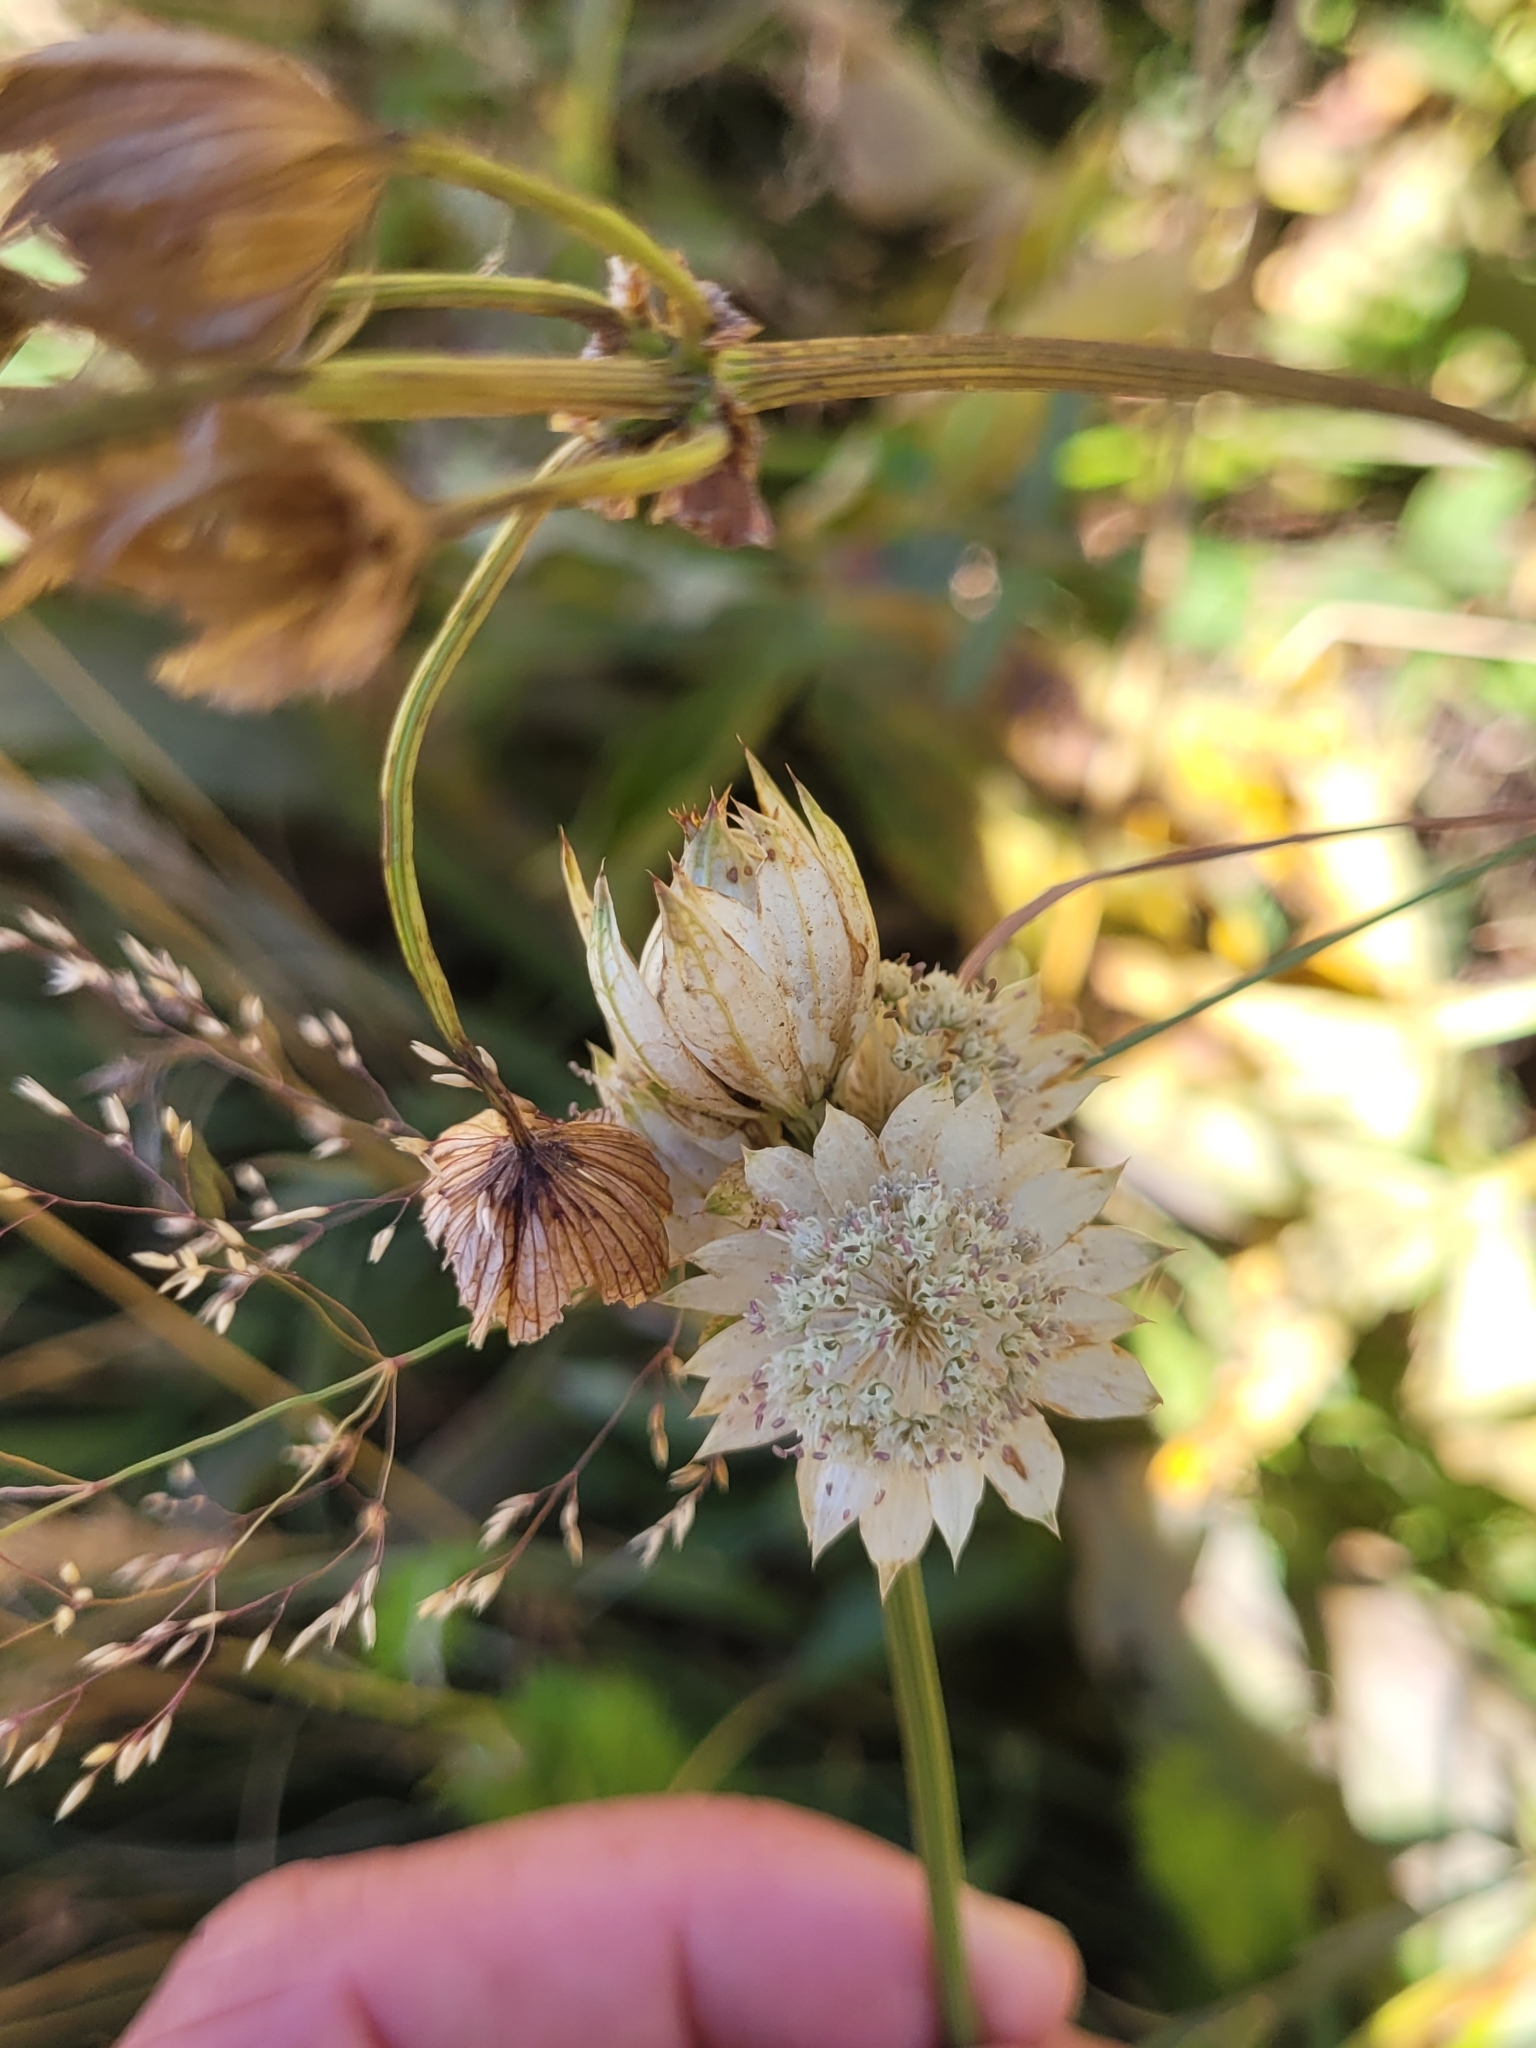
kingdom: Plantae
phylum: Tracheophyta
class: Magnoliopsida
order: Apiales
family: Apiaceae
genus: Astrantia
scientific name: Astrantia major
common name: Greater masterwort
